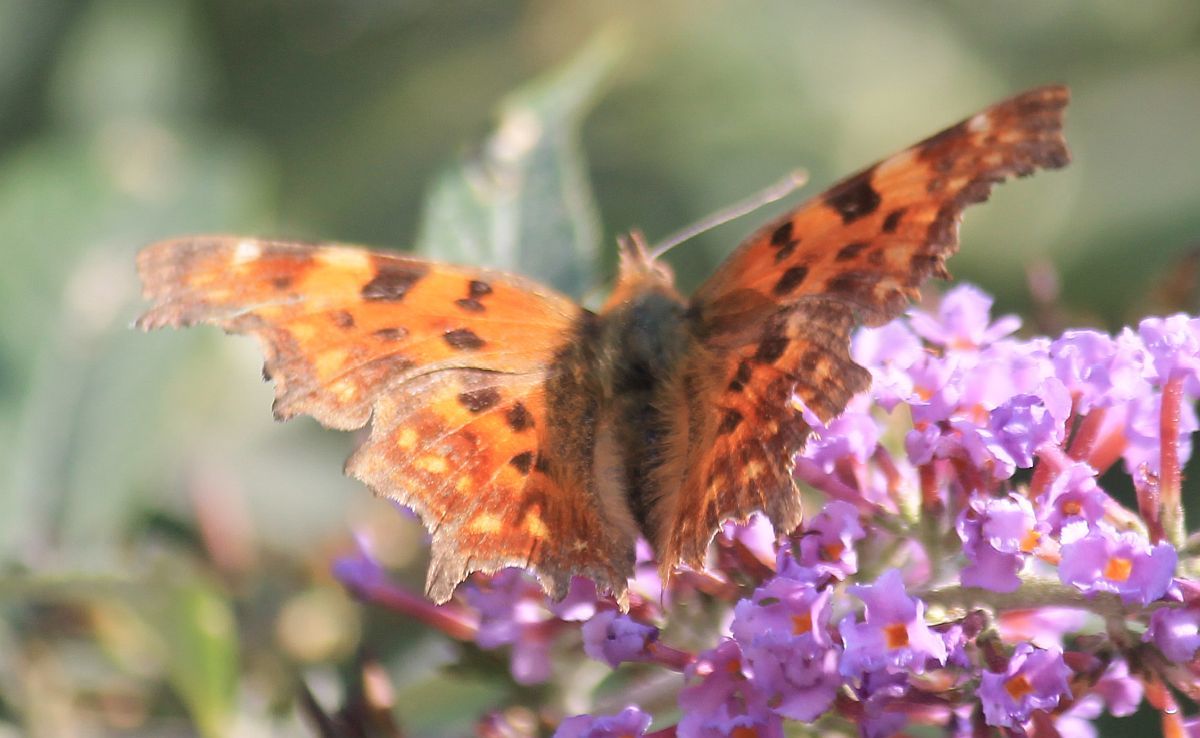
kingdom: Animalia
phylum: Arthropoda
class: Insecta
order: Lepidoptera
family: Nymphalidae
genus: Polygonia
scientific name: Polygonia c-album
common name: Comma
